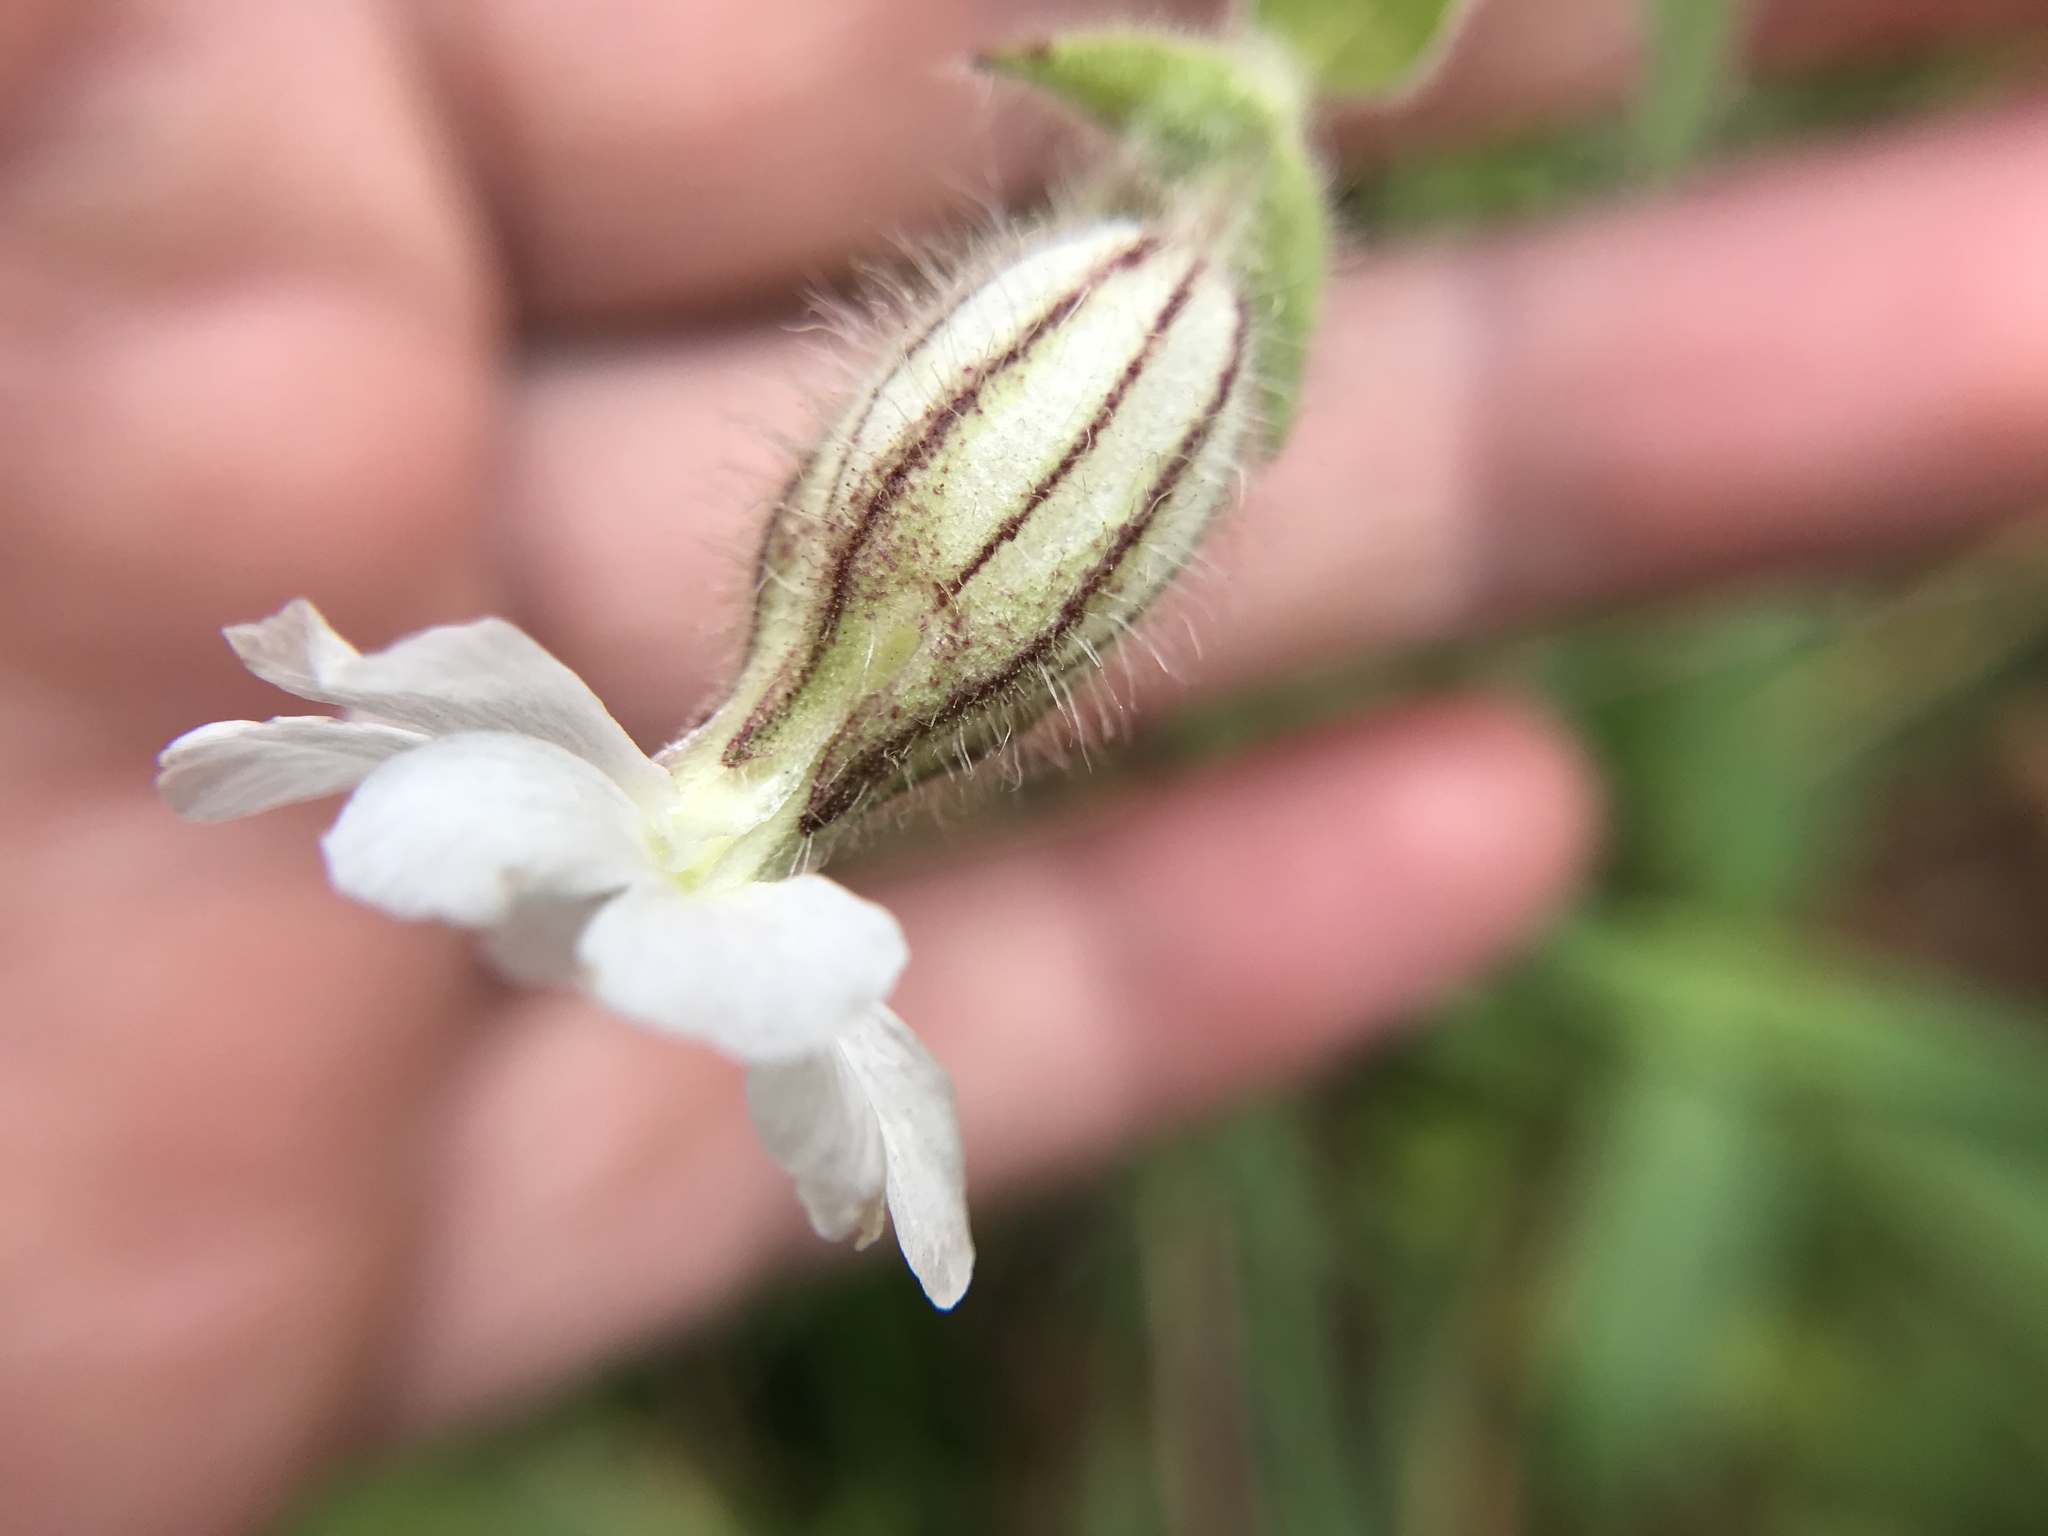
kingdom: Plantae
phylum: Tracheophyta
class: Magnoliopsida
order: Caryophyllales
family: Caryophyllaceae
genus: Silene
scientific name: Silene latifolia
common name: White campion
